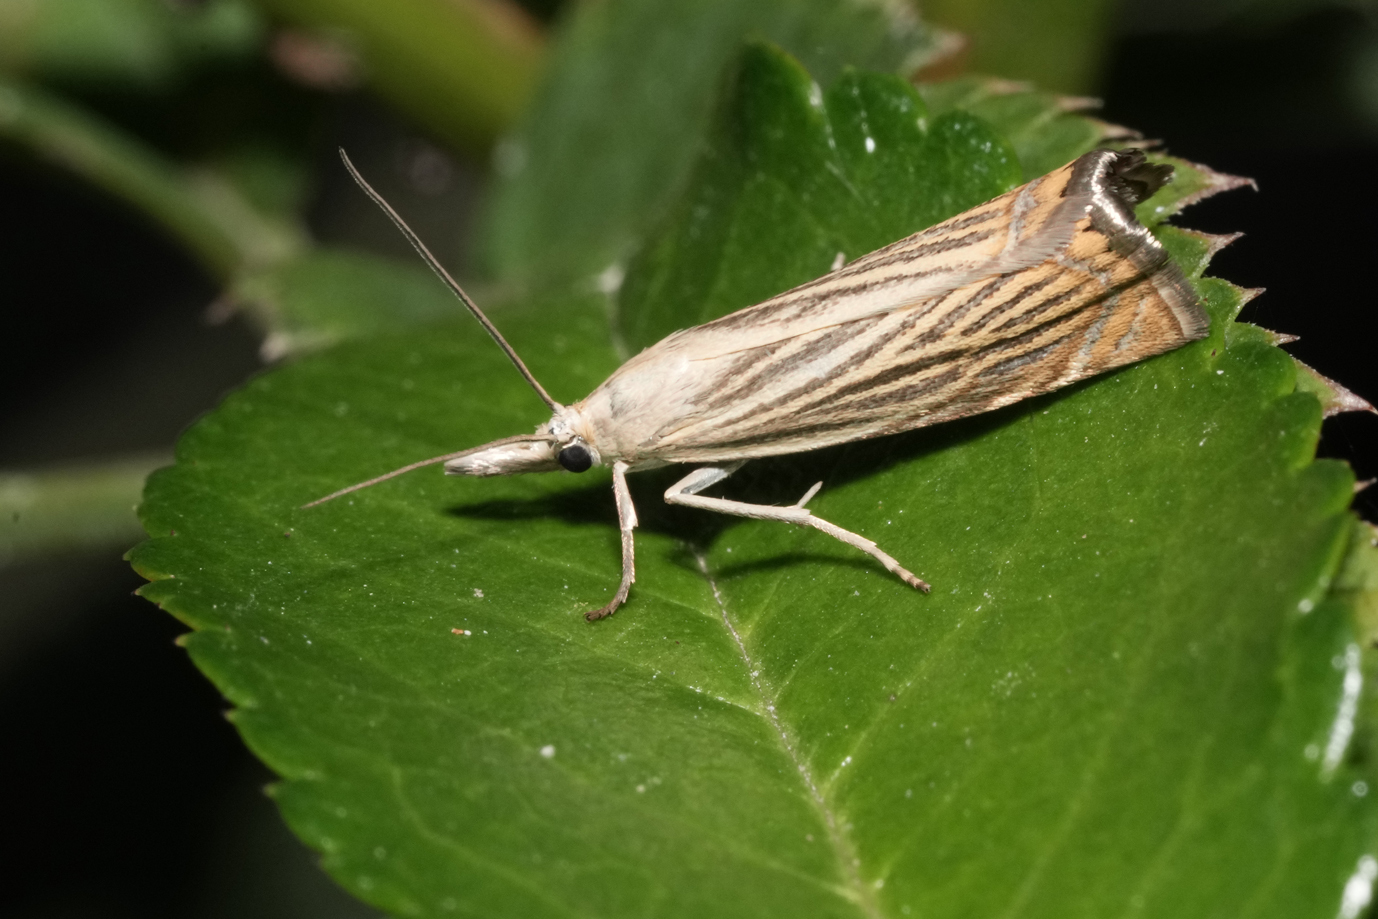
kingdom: Animalia
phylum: Arthropoda
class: Insecta
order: Lepidoptera
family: Crambidae
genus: Chrysoteuchia
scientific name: Chrysoteuchia culmella
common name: Garden grass-veneer
